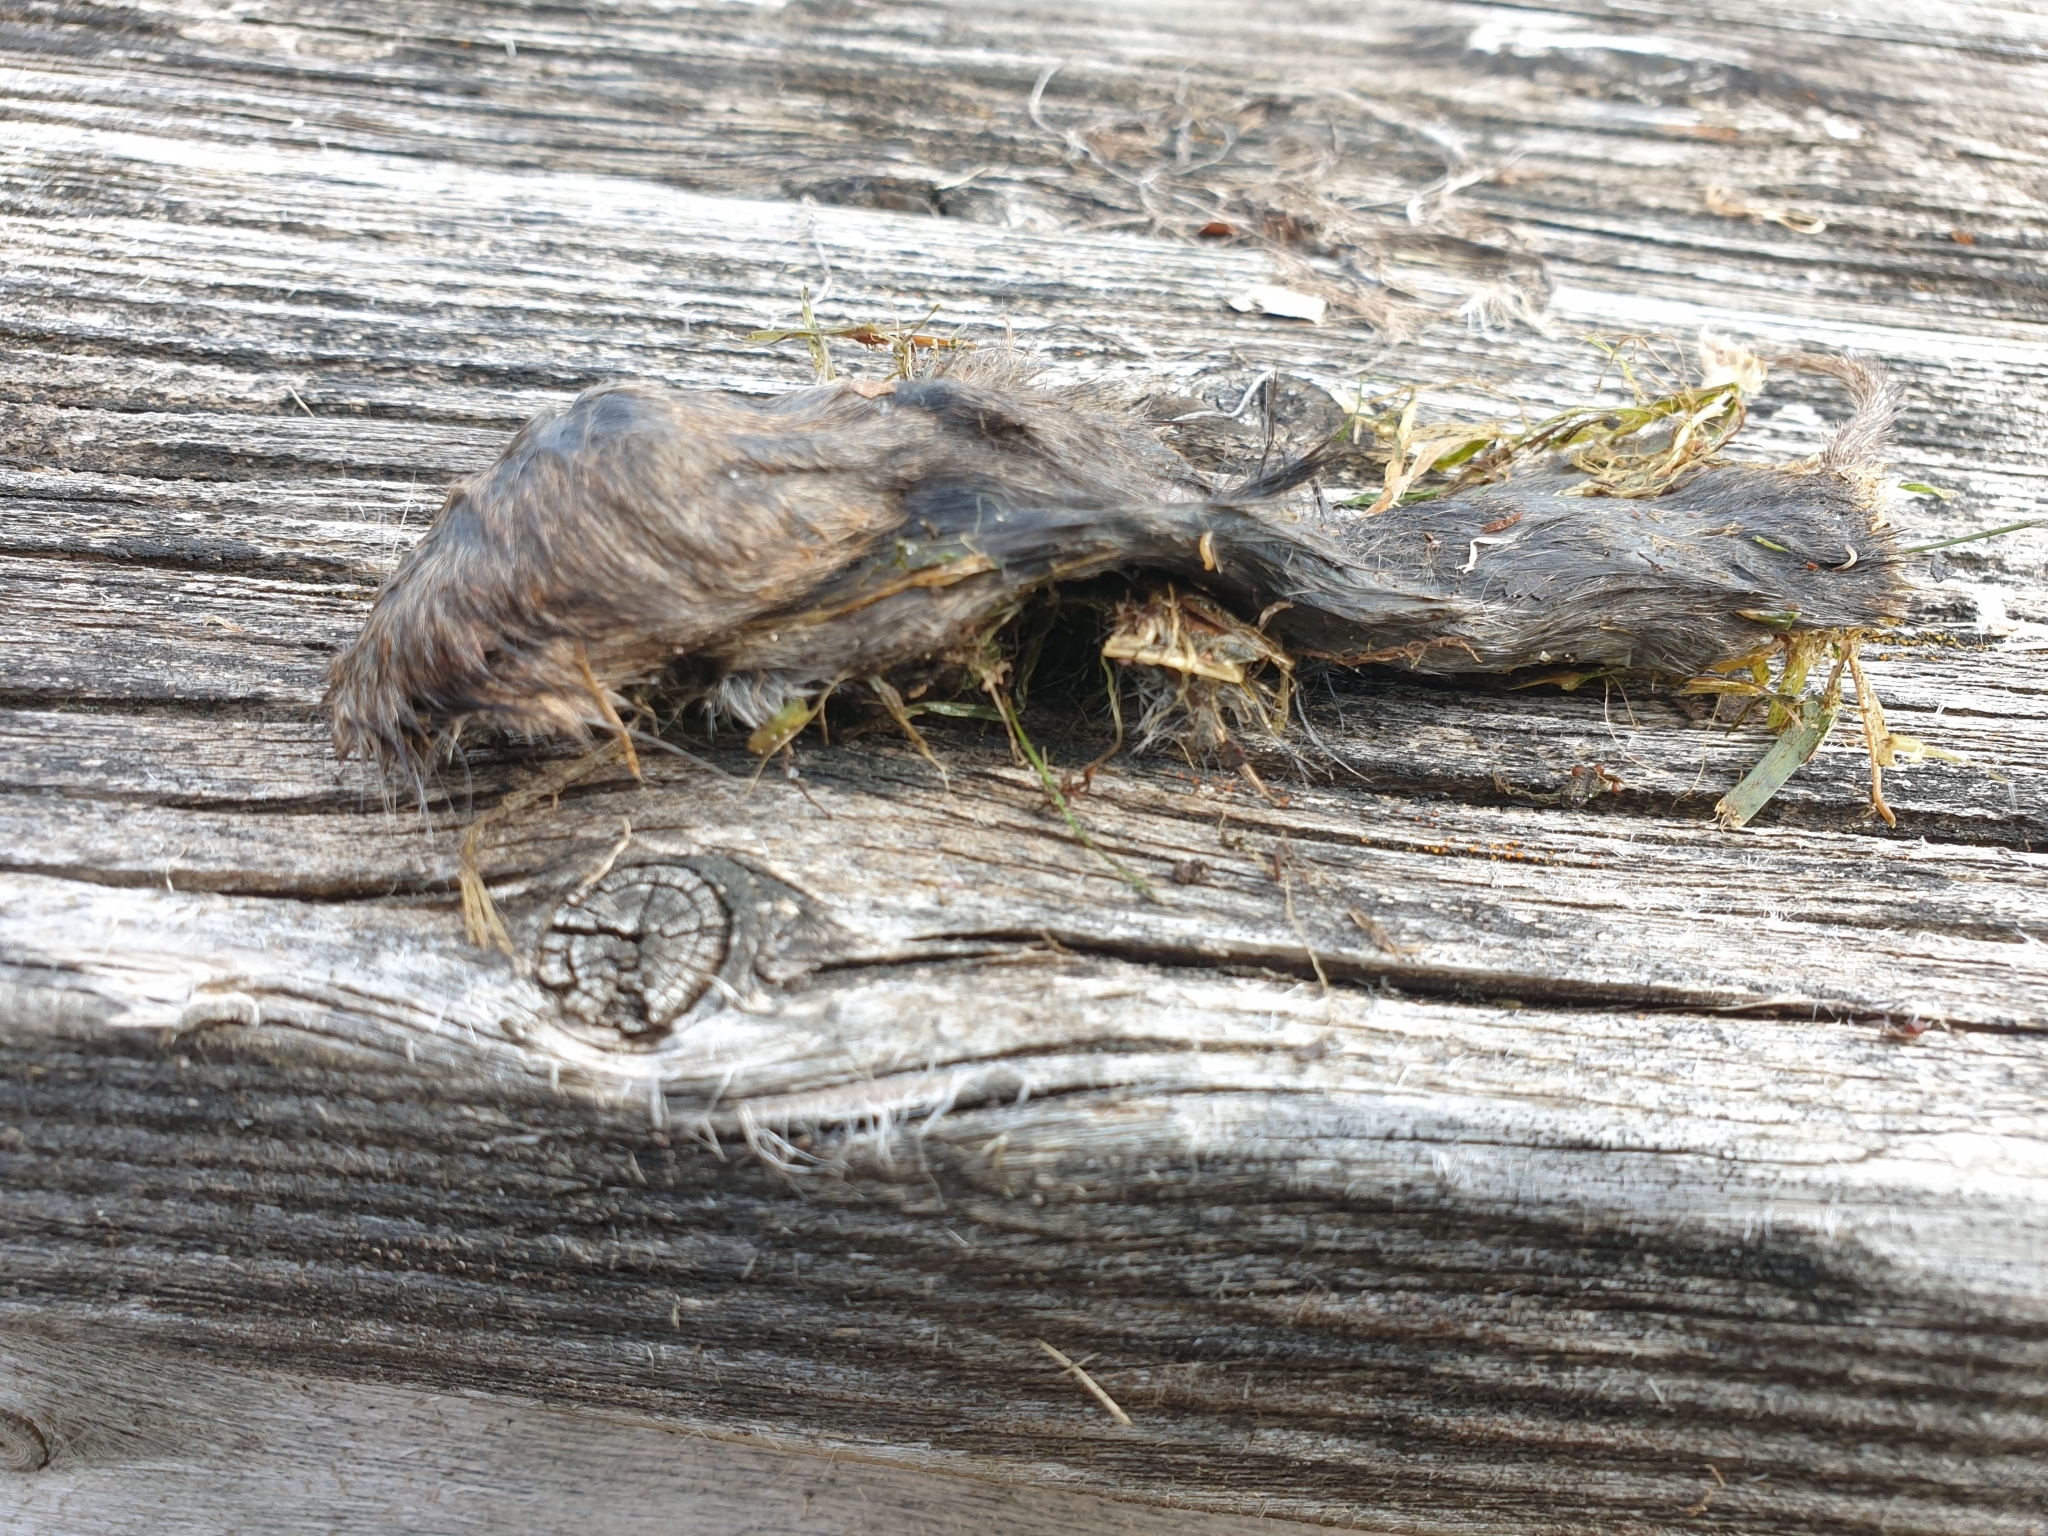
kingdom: Animalia
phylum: Chordata
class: Mammalia
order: Rodentia
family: Cricetidae
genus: Microtus
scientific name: Microtus pennsylvanicus
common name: Meadow vole
